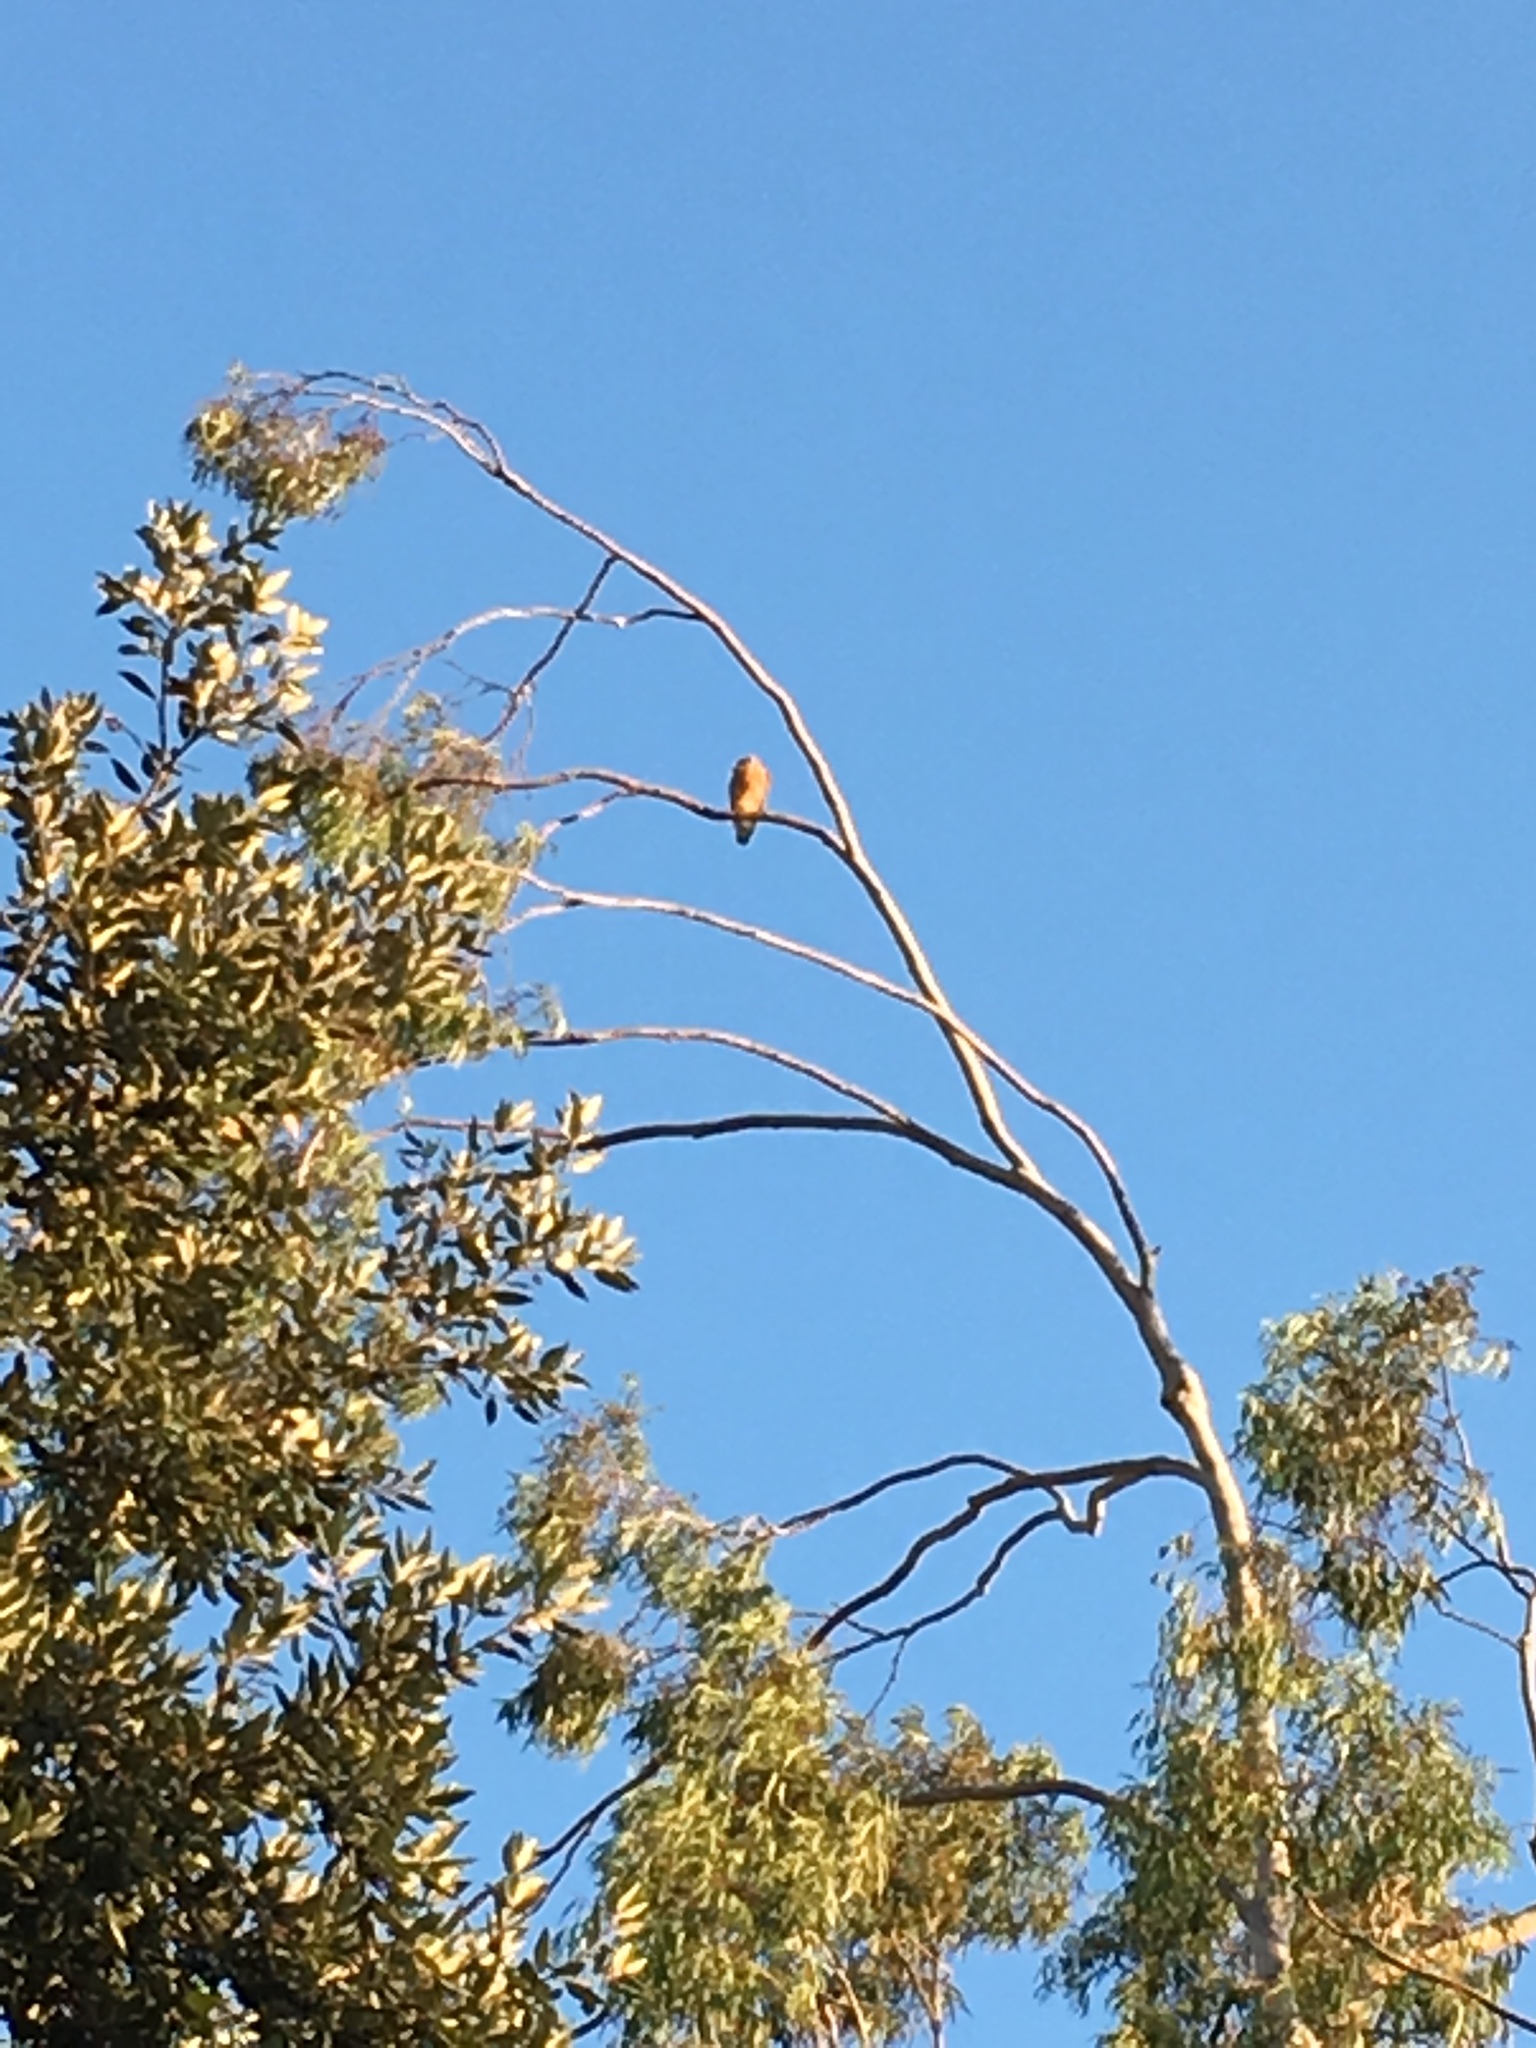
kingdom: Animalia
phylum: Chordata
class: Aves
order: Accipitriformes
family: Accipitridae
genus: Buteo
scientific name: Buteo lineatus
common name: Red-shouldered hawk
